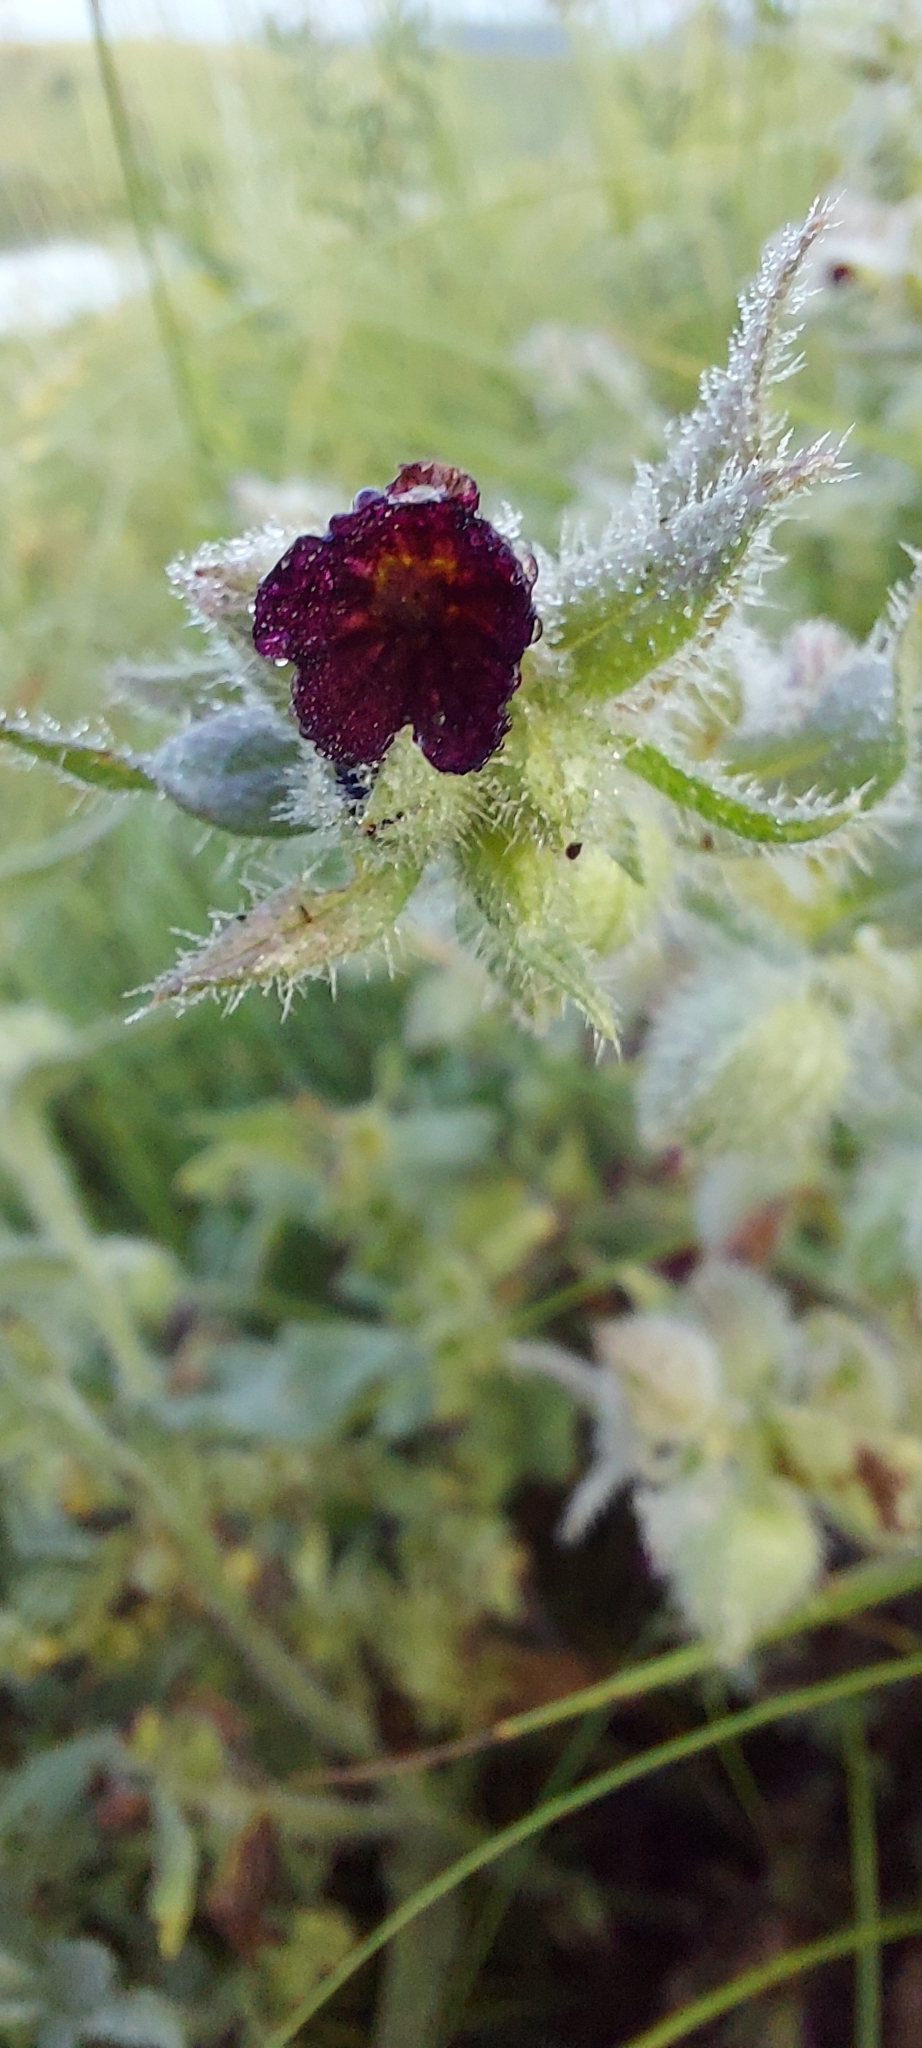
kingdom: Plantae
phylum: Tracheophyta
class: Magnoliopsida
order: Boraginales
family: Boraginaceae
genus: Nonea
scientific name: Nonea pulla
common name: Brown nonea
